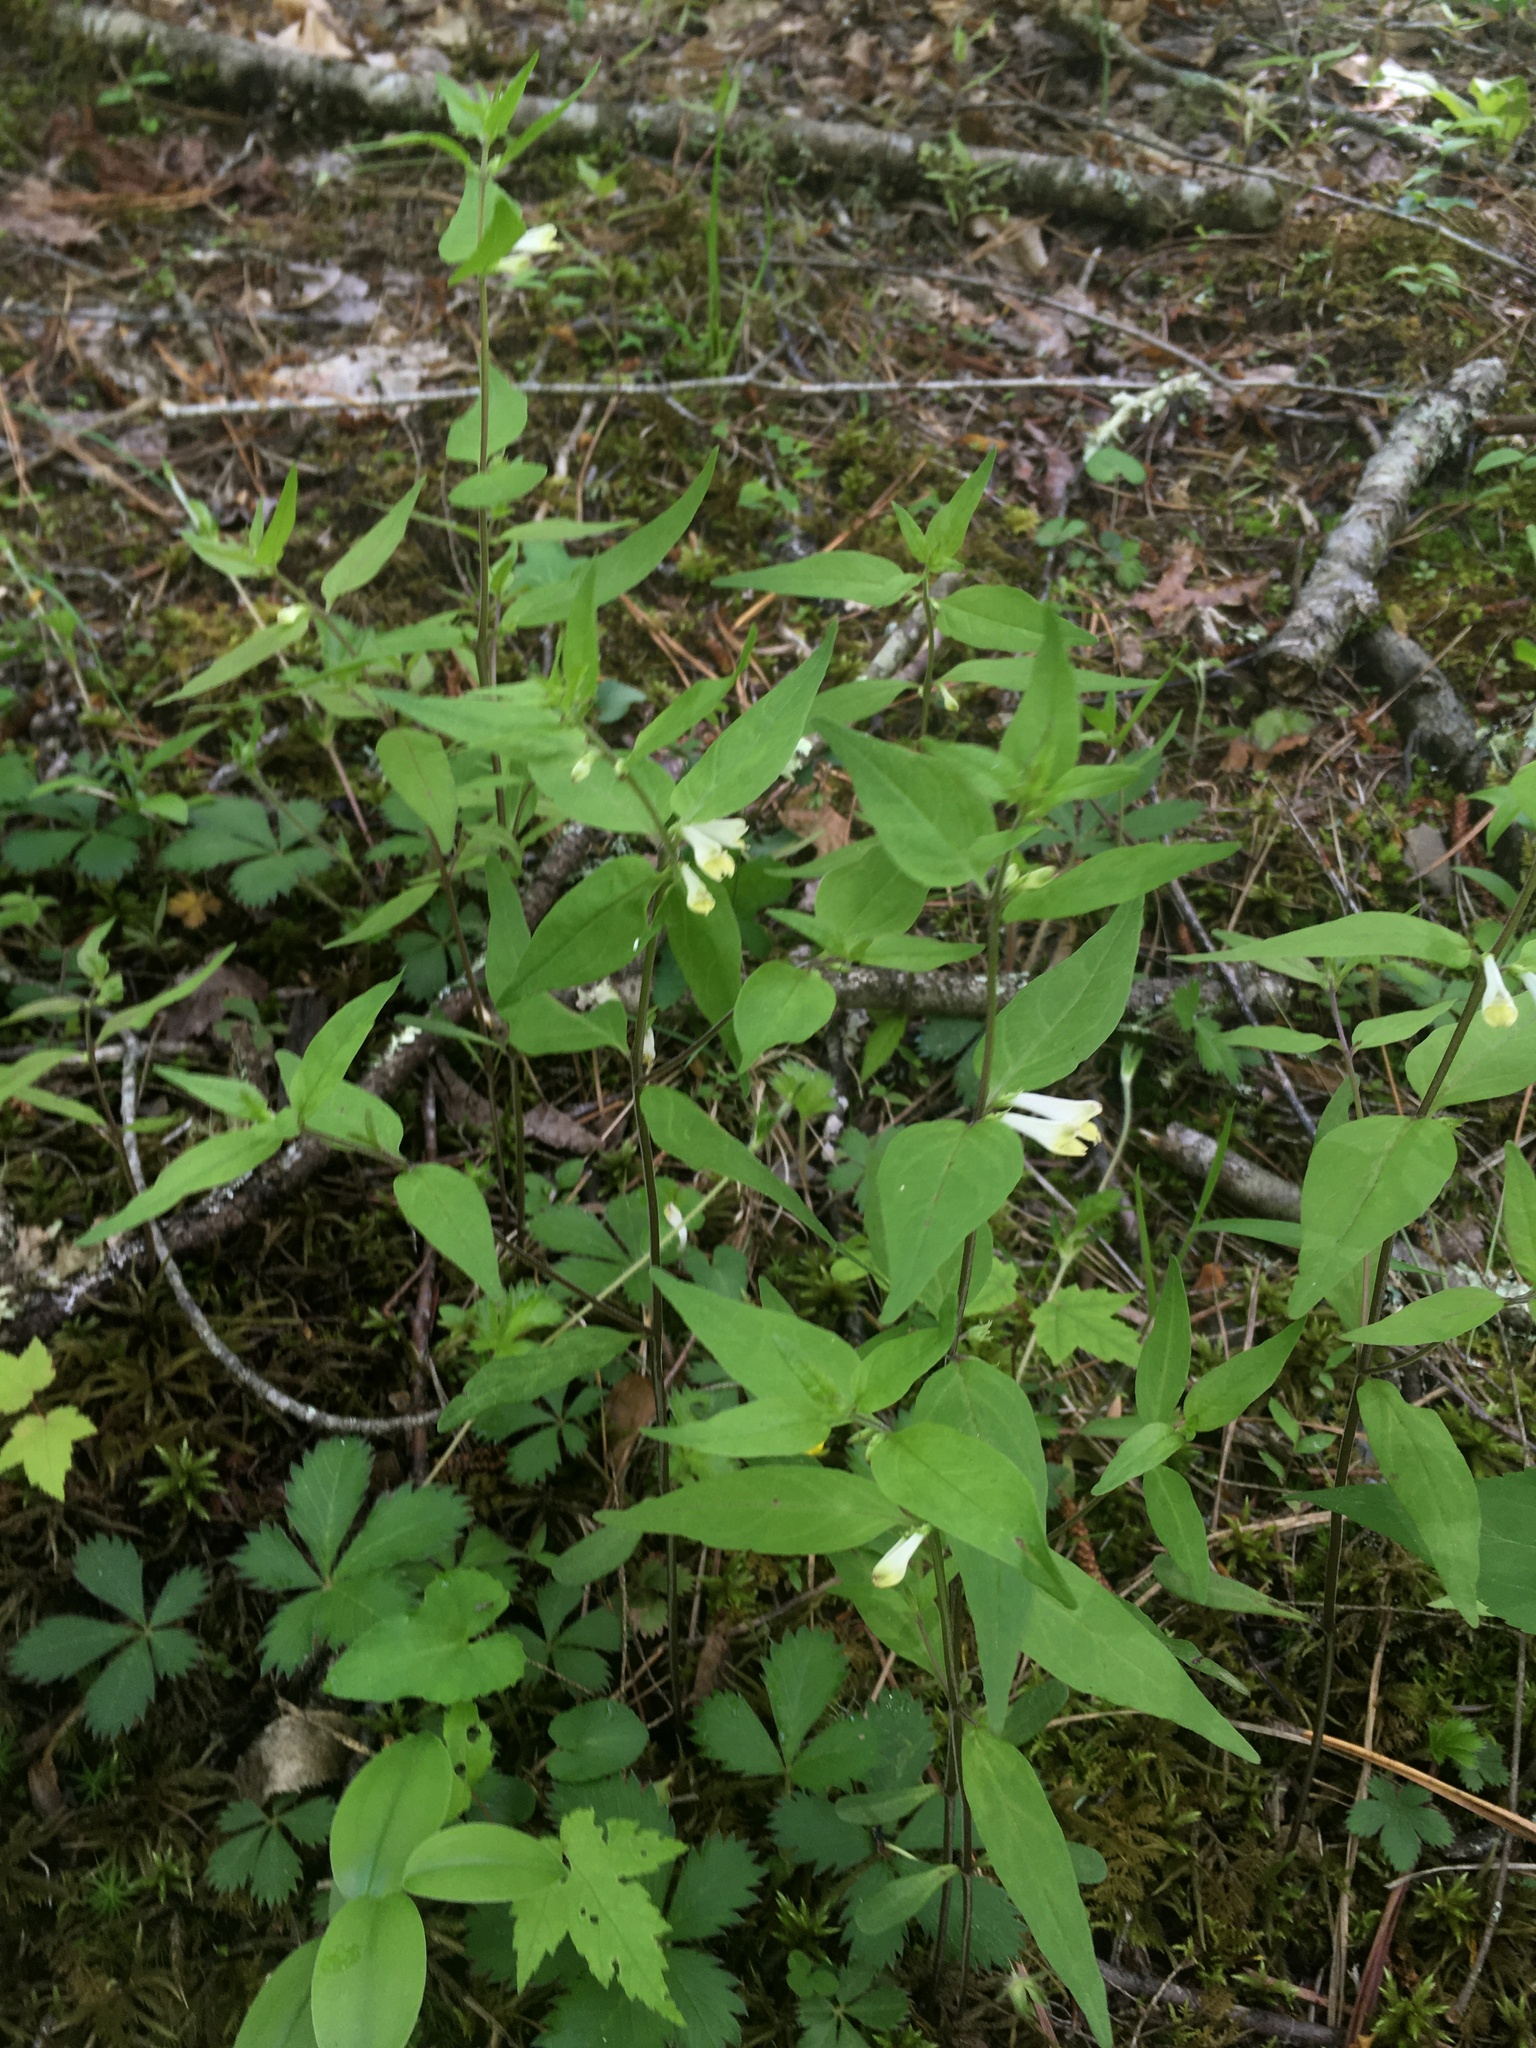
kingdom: Plantae
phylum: Tracheophyta
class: Magnoliopsida
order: Lamiales
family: Orobanchaceae
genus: Melampyrum
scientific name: Melampyrum lineare
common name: American cow-wheat
